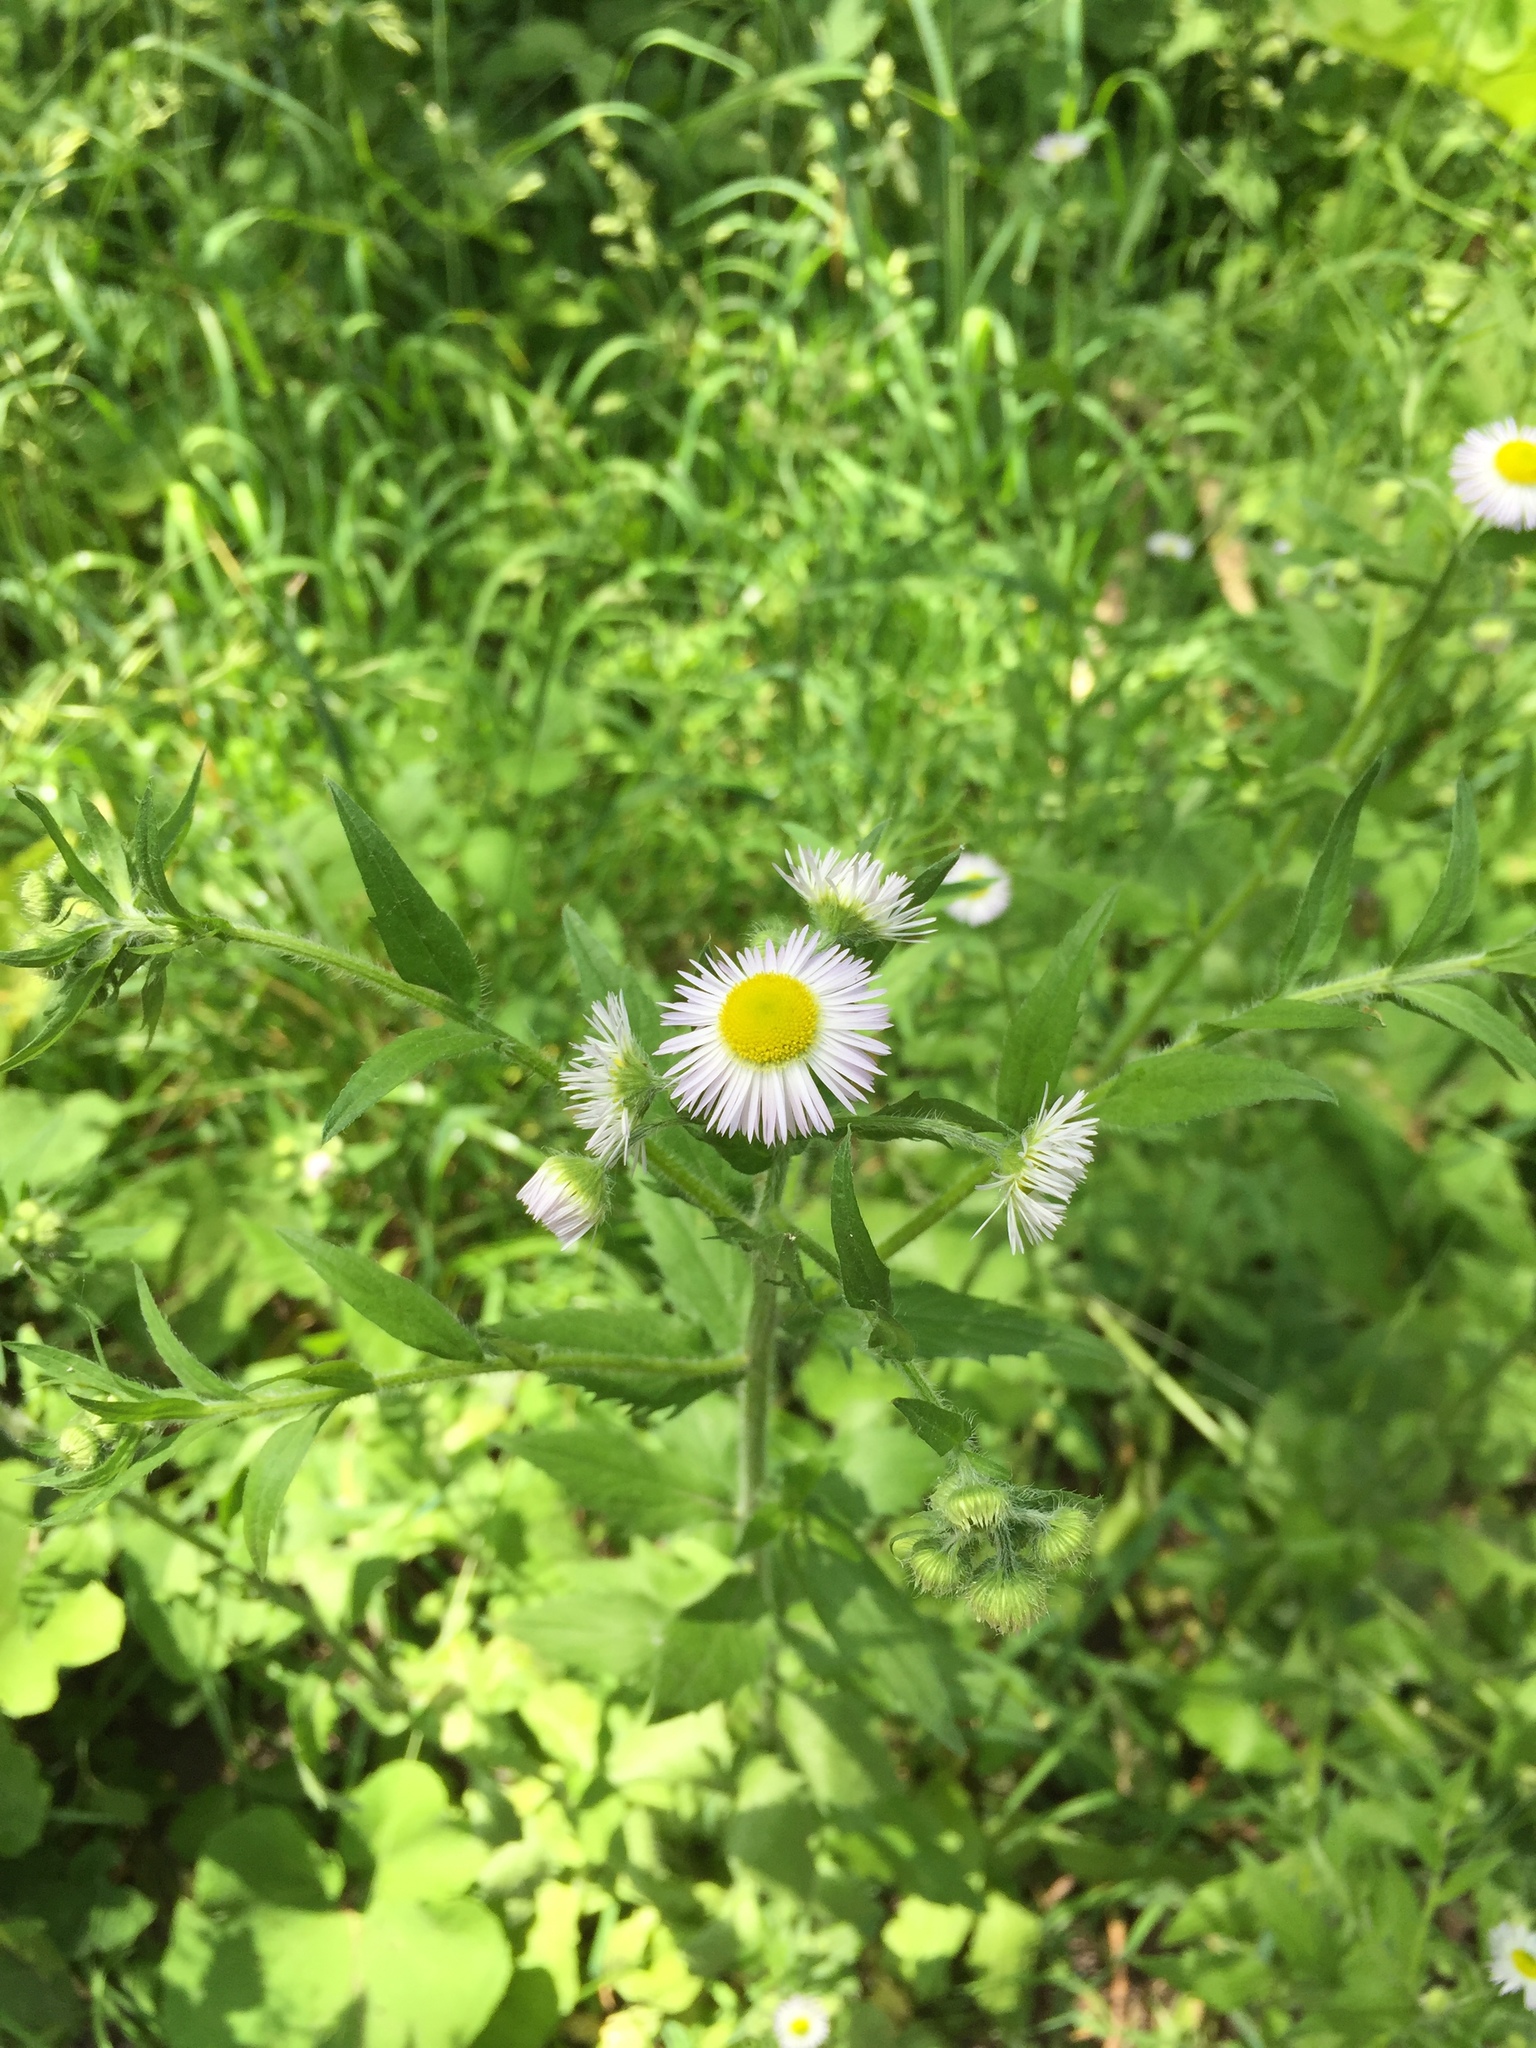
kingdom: Plantae
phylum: Tracheophyta
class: Magnoliopsida
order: Asterales
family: Asteraceae
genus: Erigeron
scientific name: Erigeron annuus
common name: Tall fleabane
